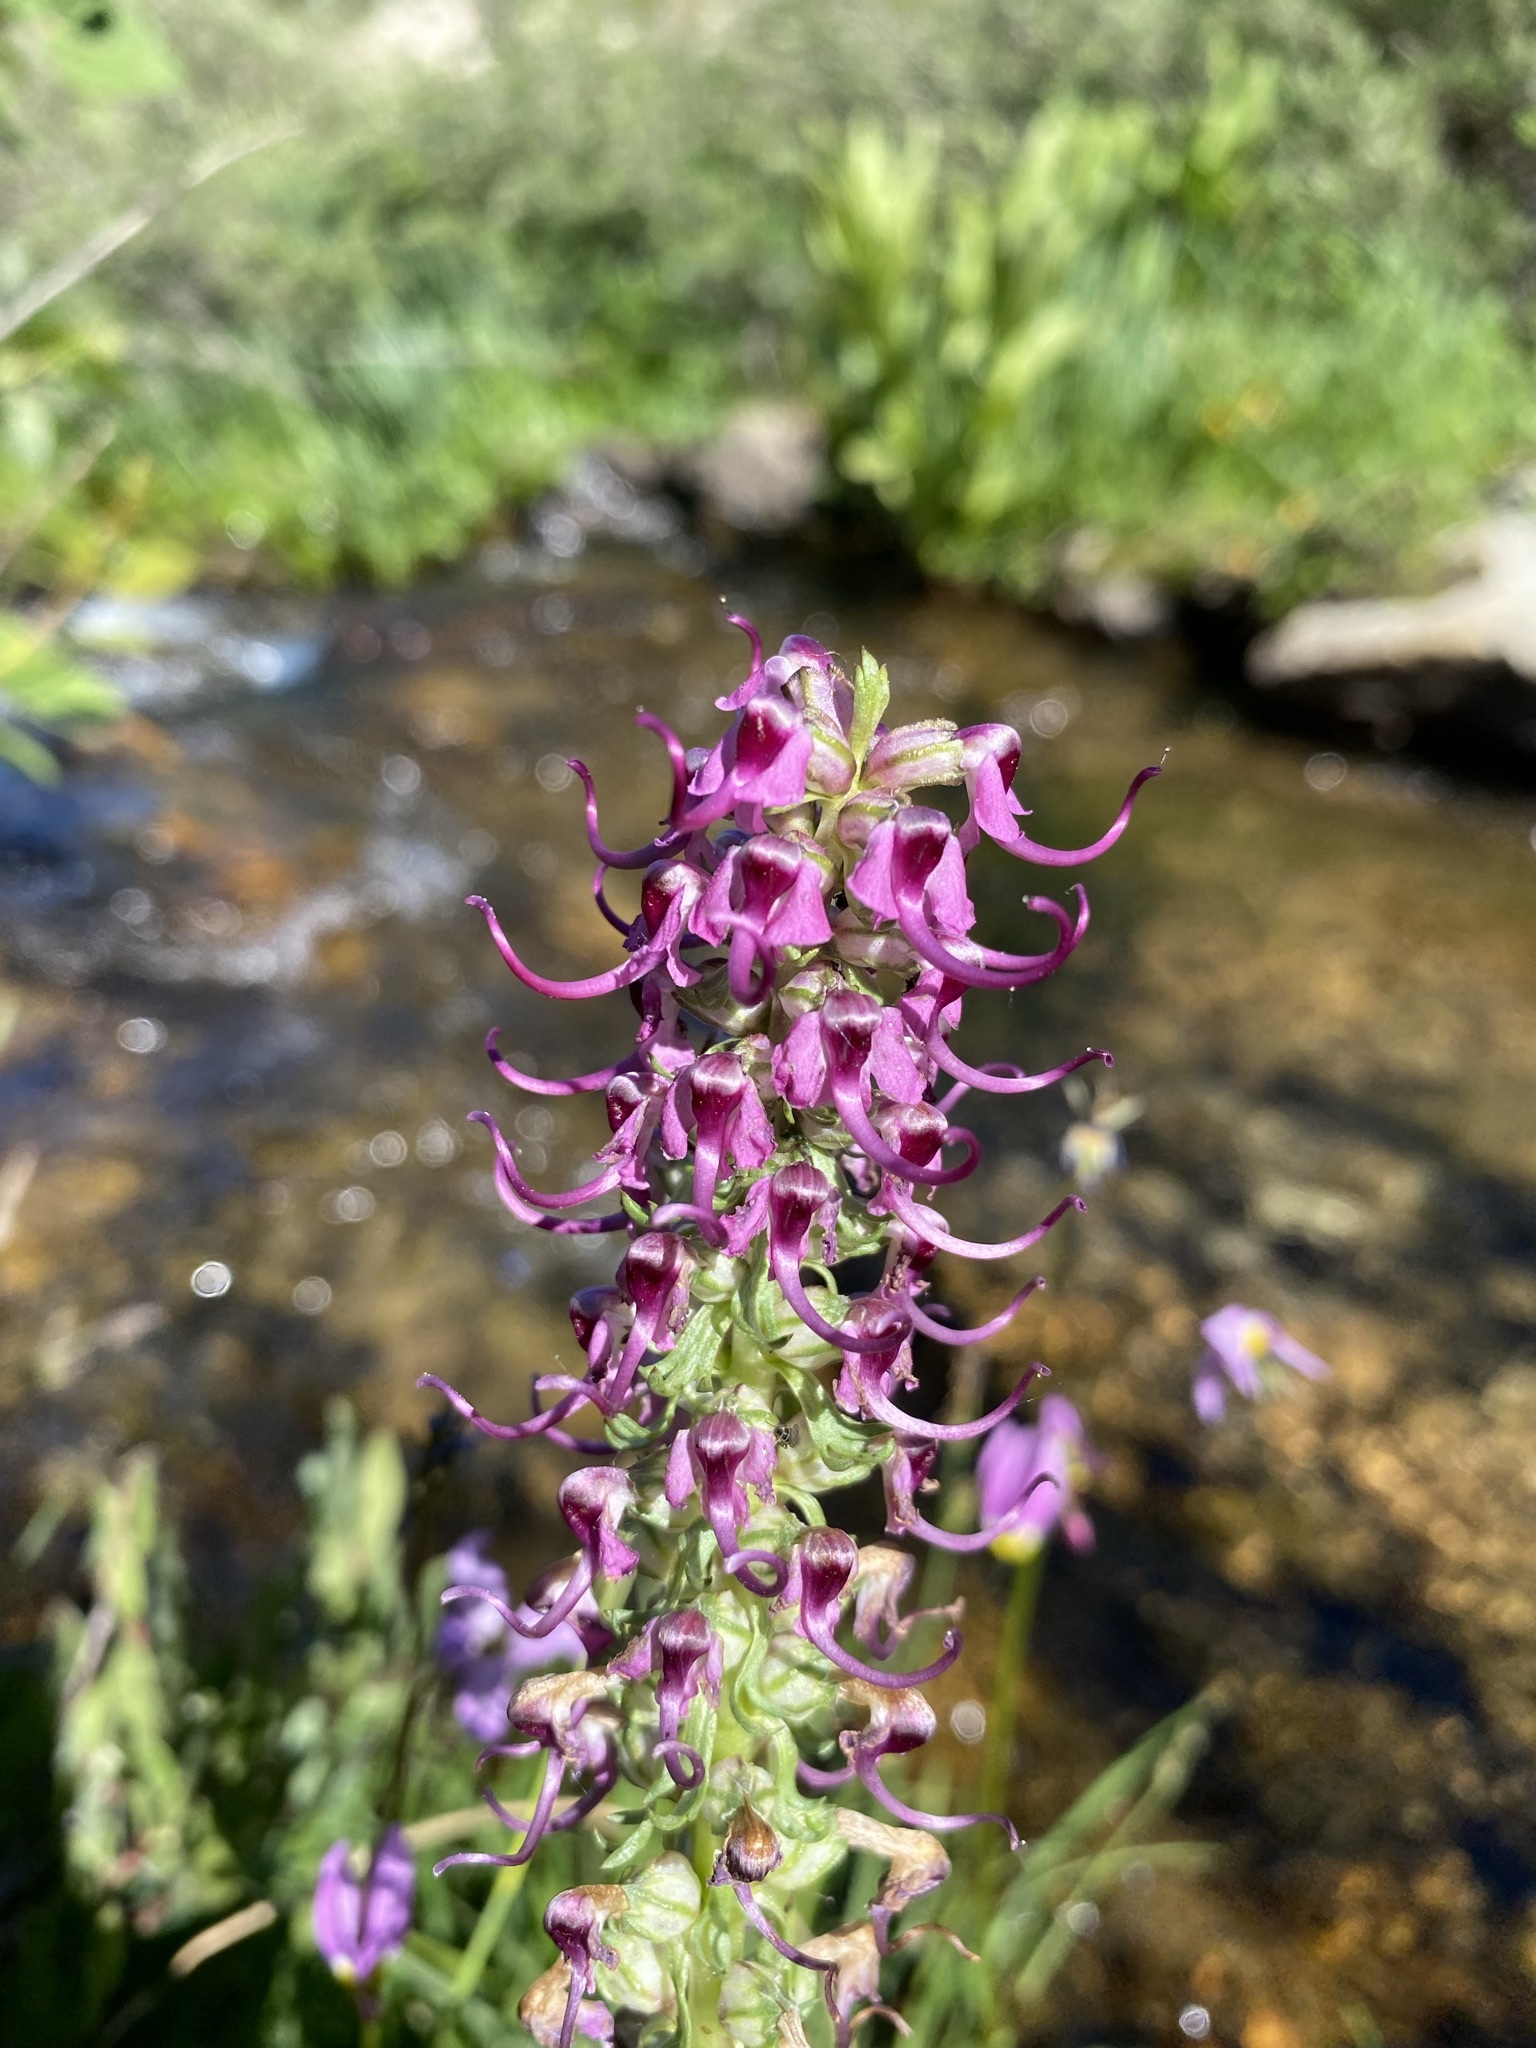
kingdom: Plantae
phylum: Tracheophyta
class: Magnoliopsida
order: Lamiales
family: Orobanchaceae
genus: Pedicularis
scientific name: Pedicularis groenlandica
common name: Elephant's-head
